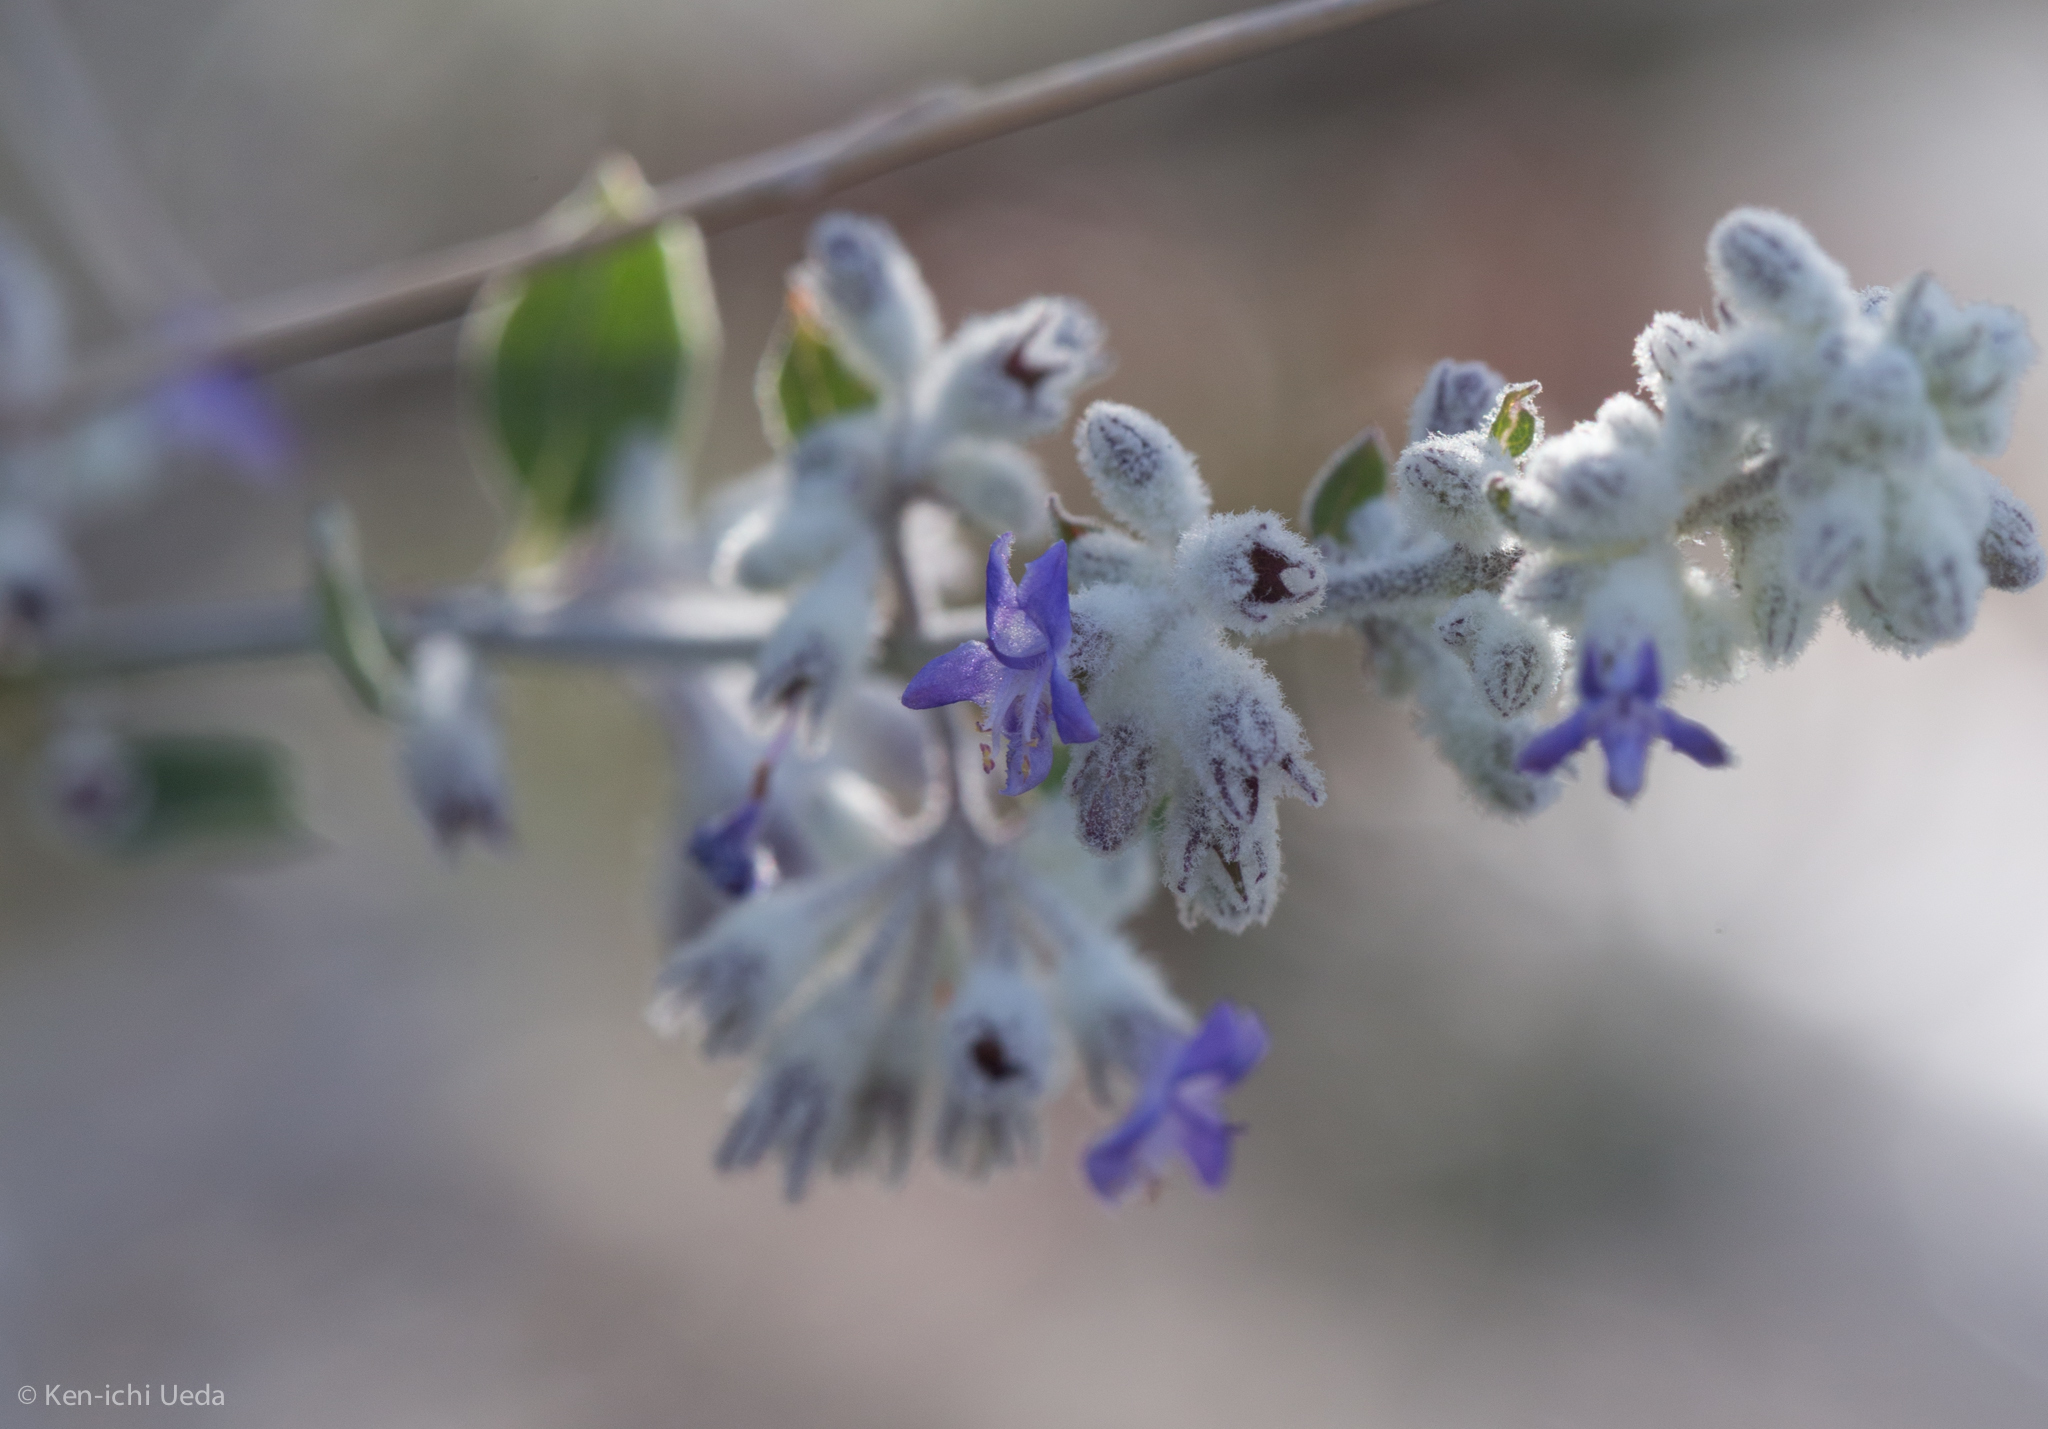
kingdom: Plantae
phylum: Tracheophyta
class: Magnoliopsida
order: Lamiales
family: Lamiaceae
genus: Condea
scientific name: Condea emoryi
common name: Chia
